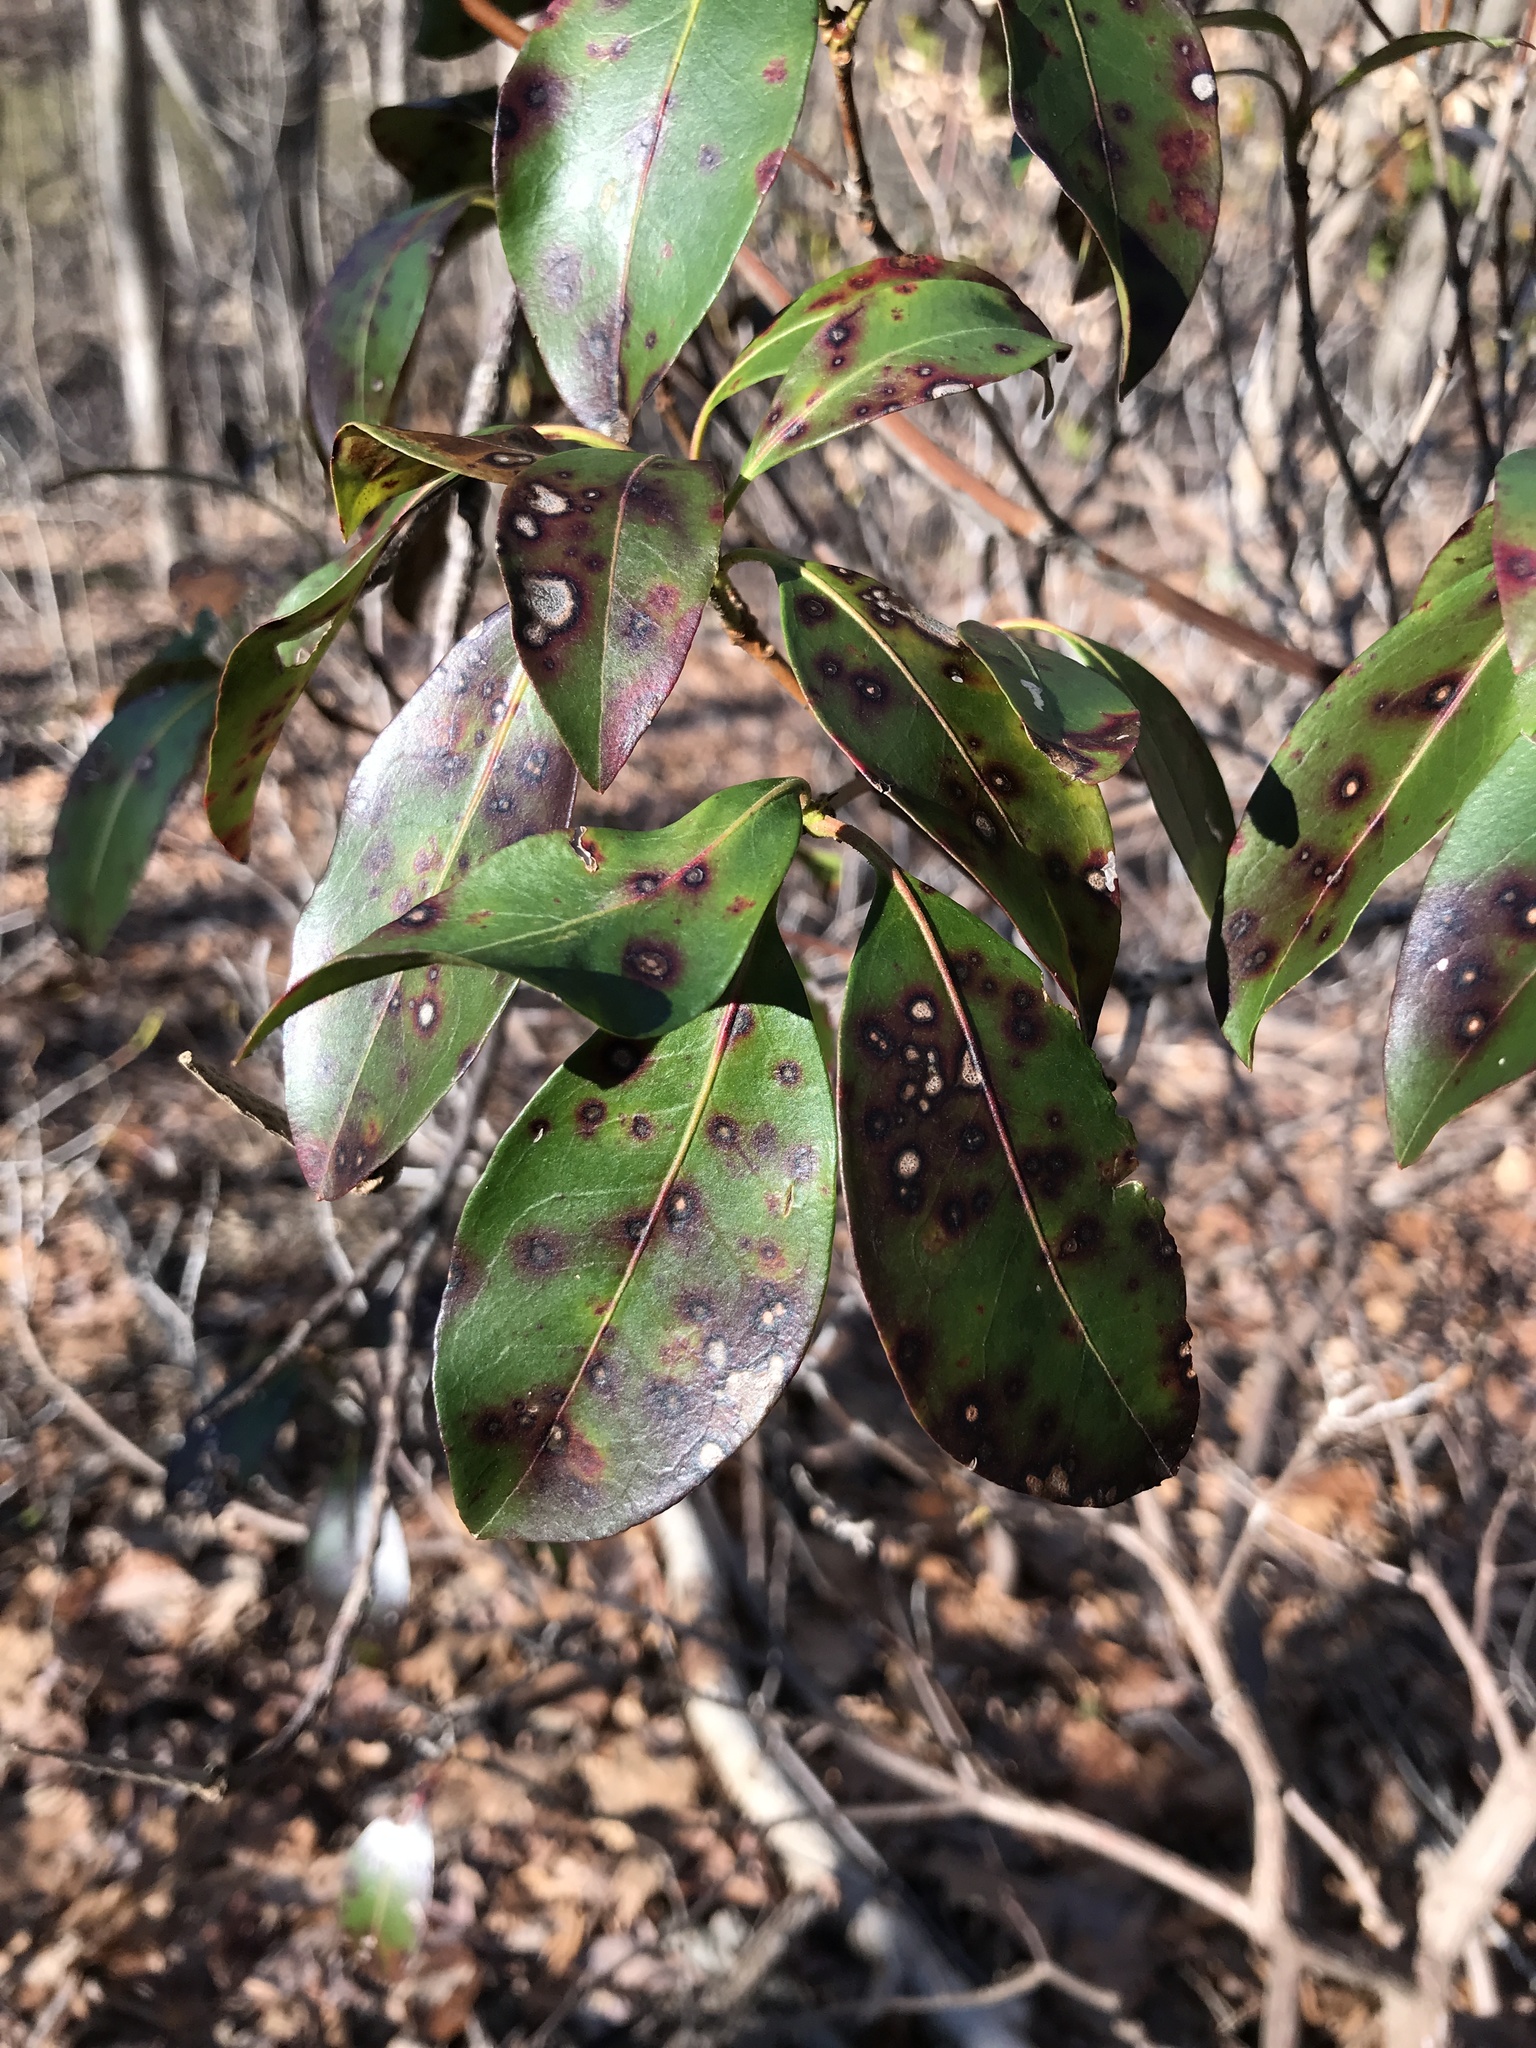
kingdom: Fungi
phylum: Ascomycota
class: Dothideomycetes
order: Mycosphaerellales
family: Mycosphaerellaceae
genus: Mycosphaerella
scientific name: Mycosphaerella colorata
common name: Mountain laurel leaf spot
